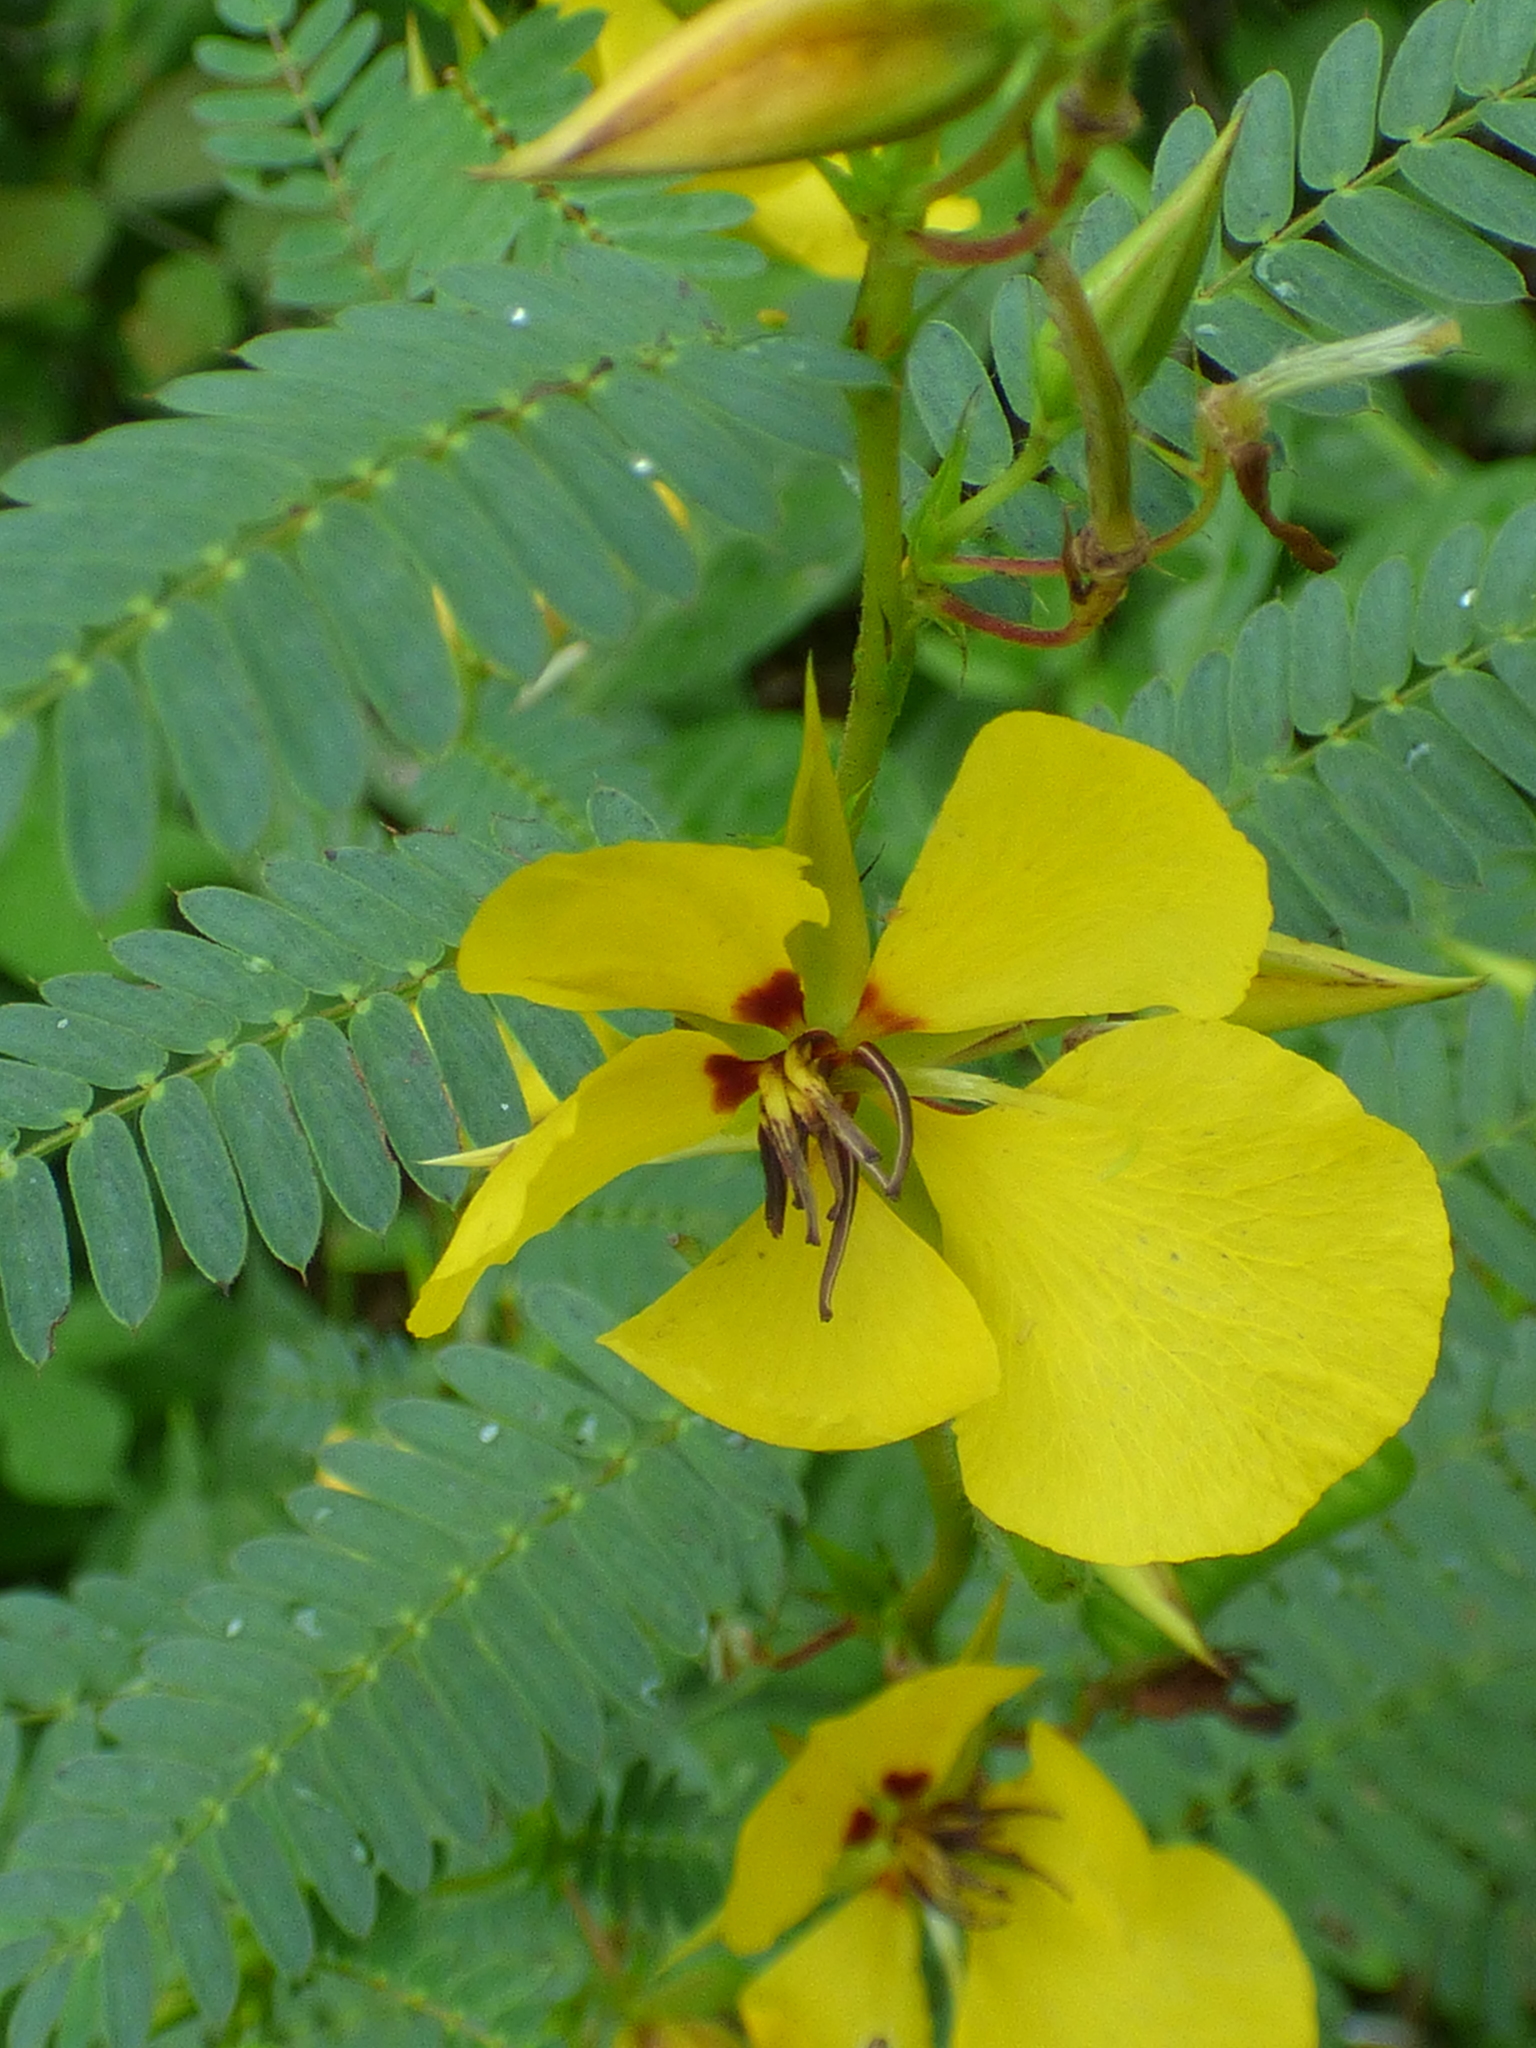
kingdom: Plantae
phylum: Tracheophyta
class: Magnoliopsida
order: Fabales
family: Fabaceae
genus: Chamaecrista
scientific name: Chamaecrista fasciculata
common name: Golden cassia
